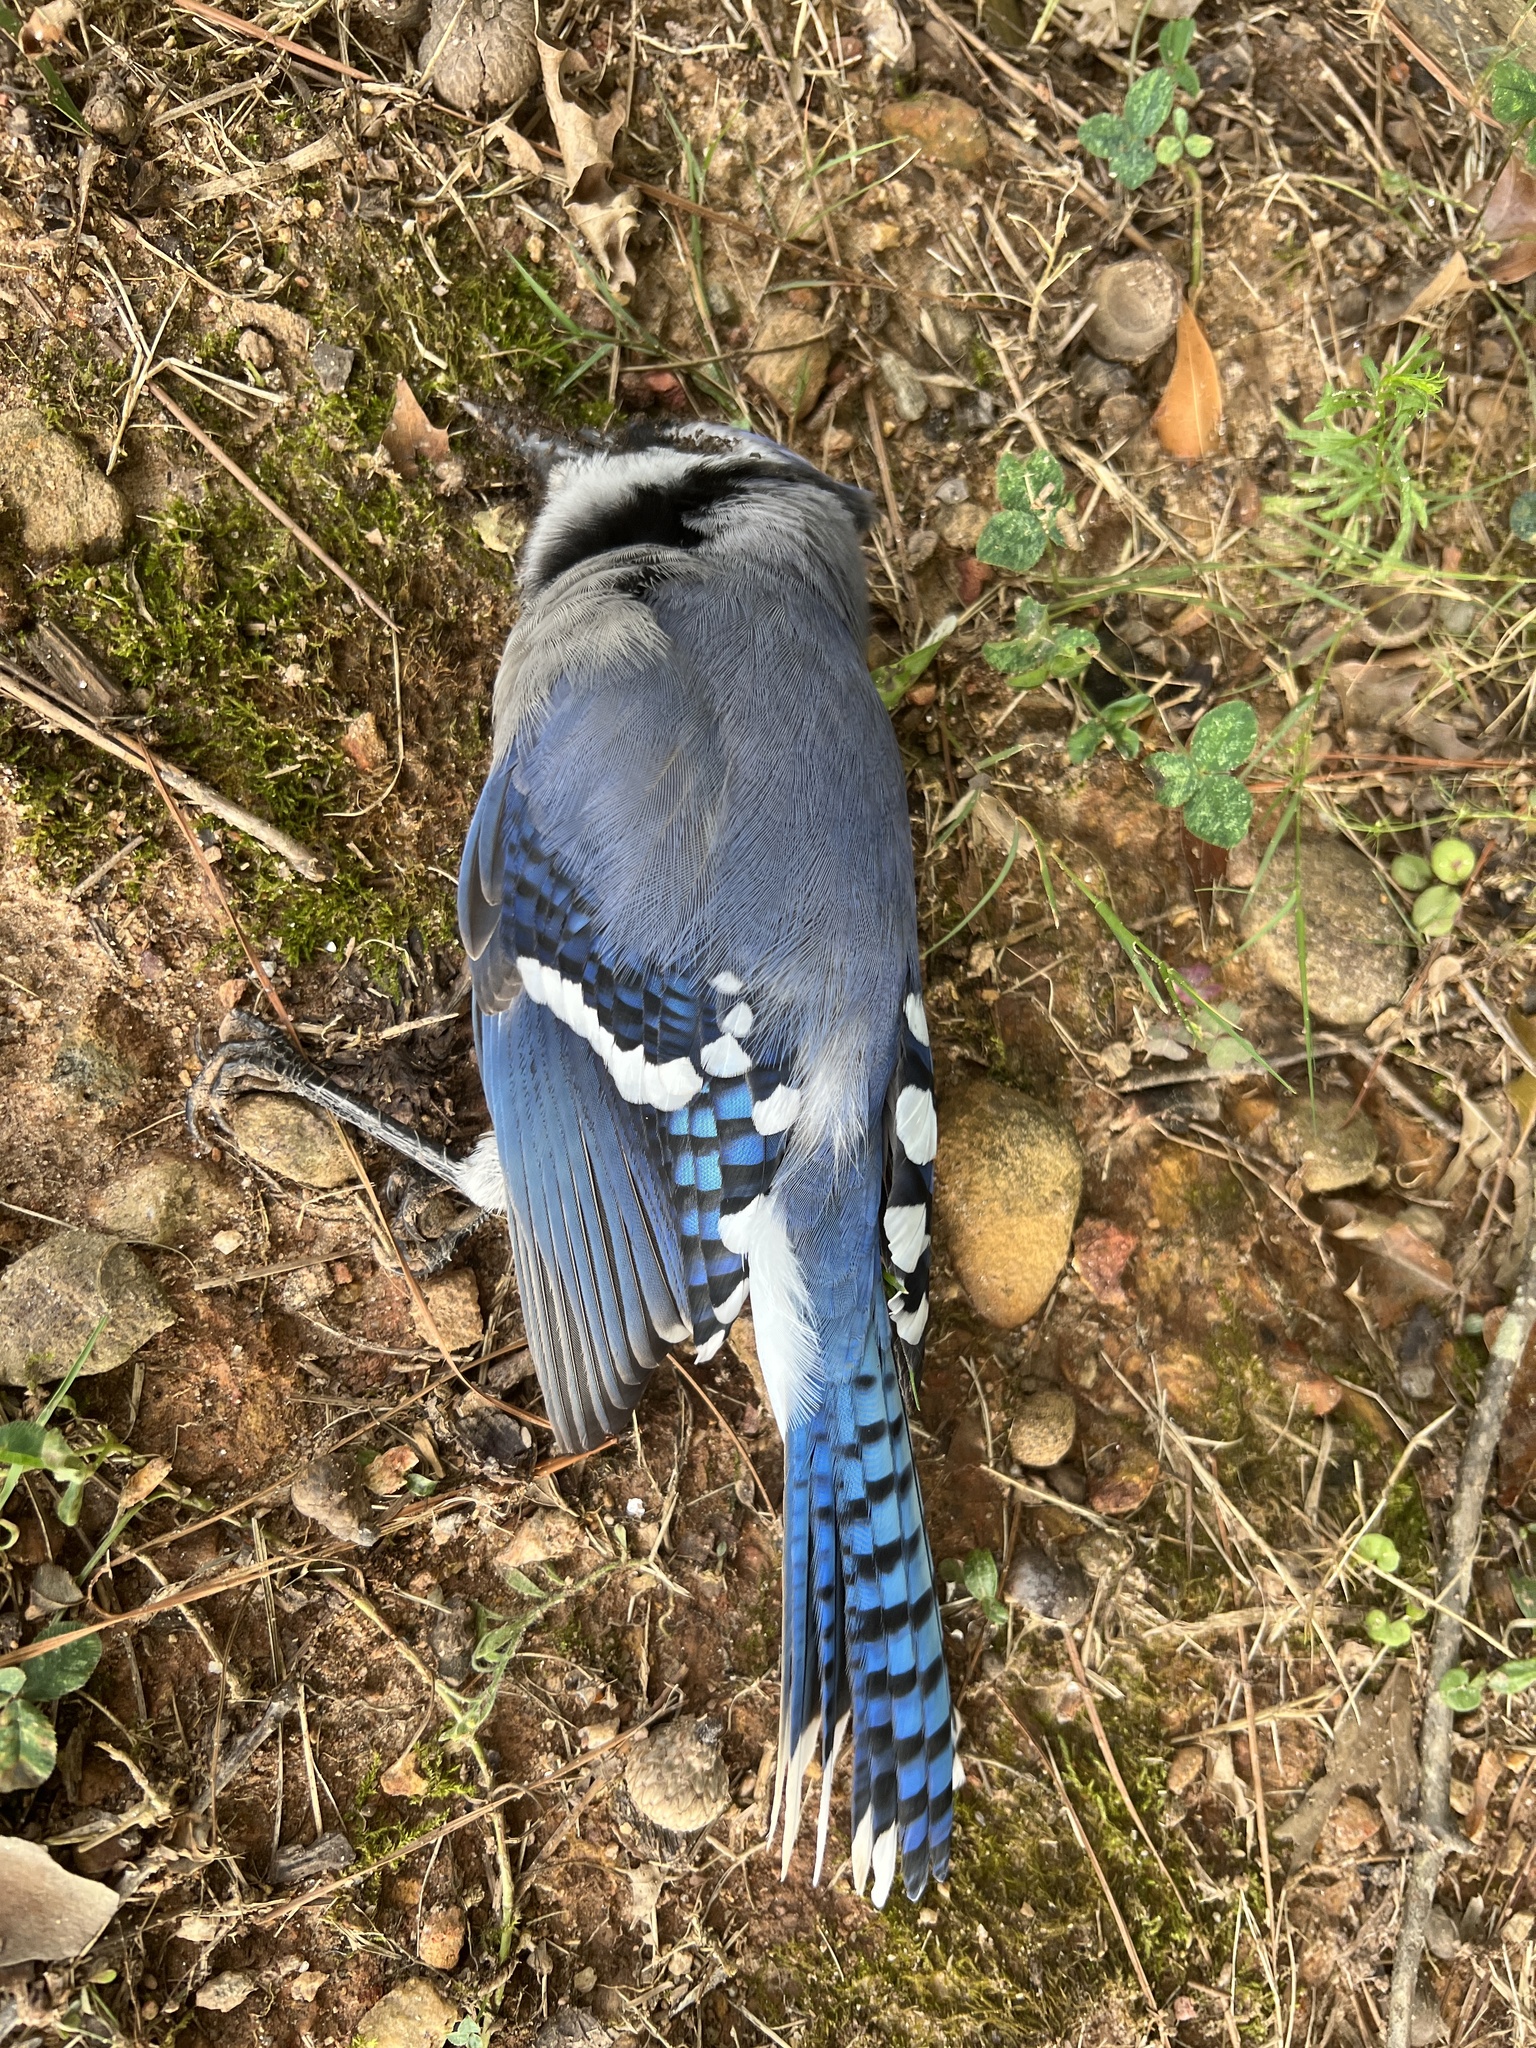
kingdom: Animalia
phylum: Chordata
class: Aves
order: Passeriformes
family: Corvidae
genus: Cyanocitta
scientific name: Cyanocitta cristata
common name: Blue jay
